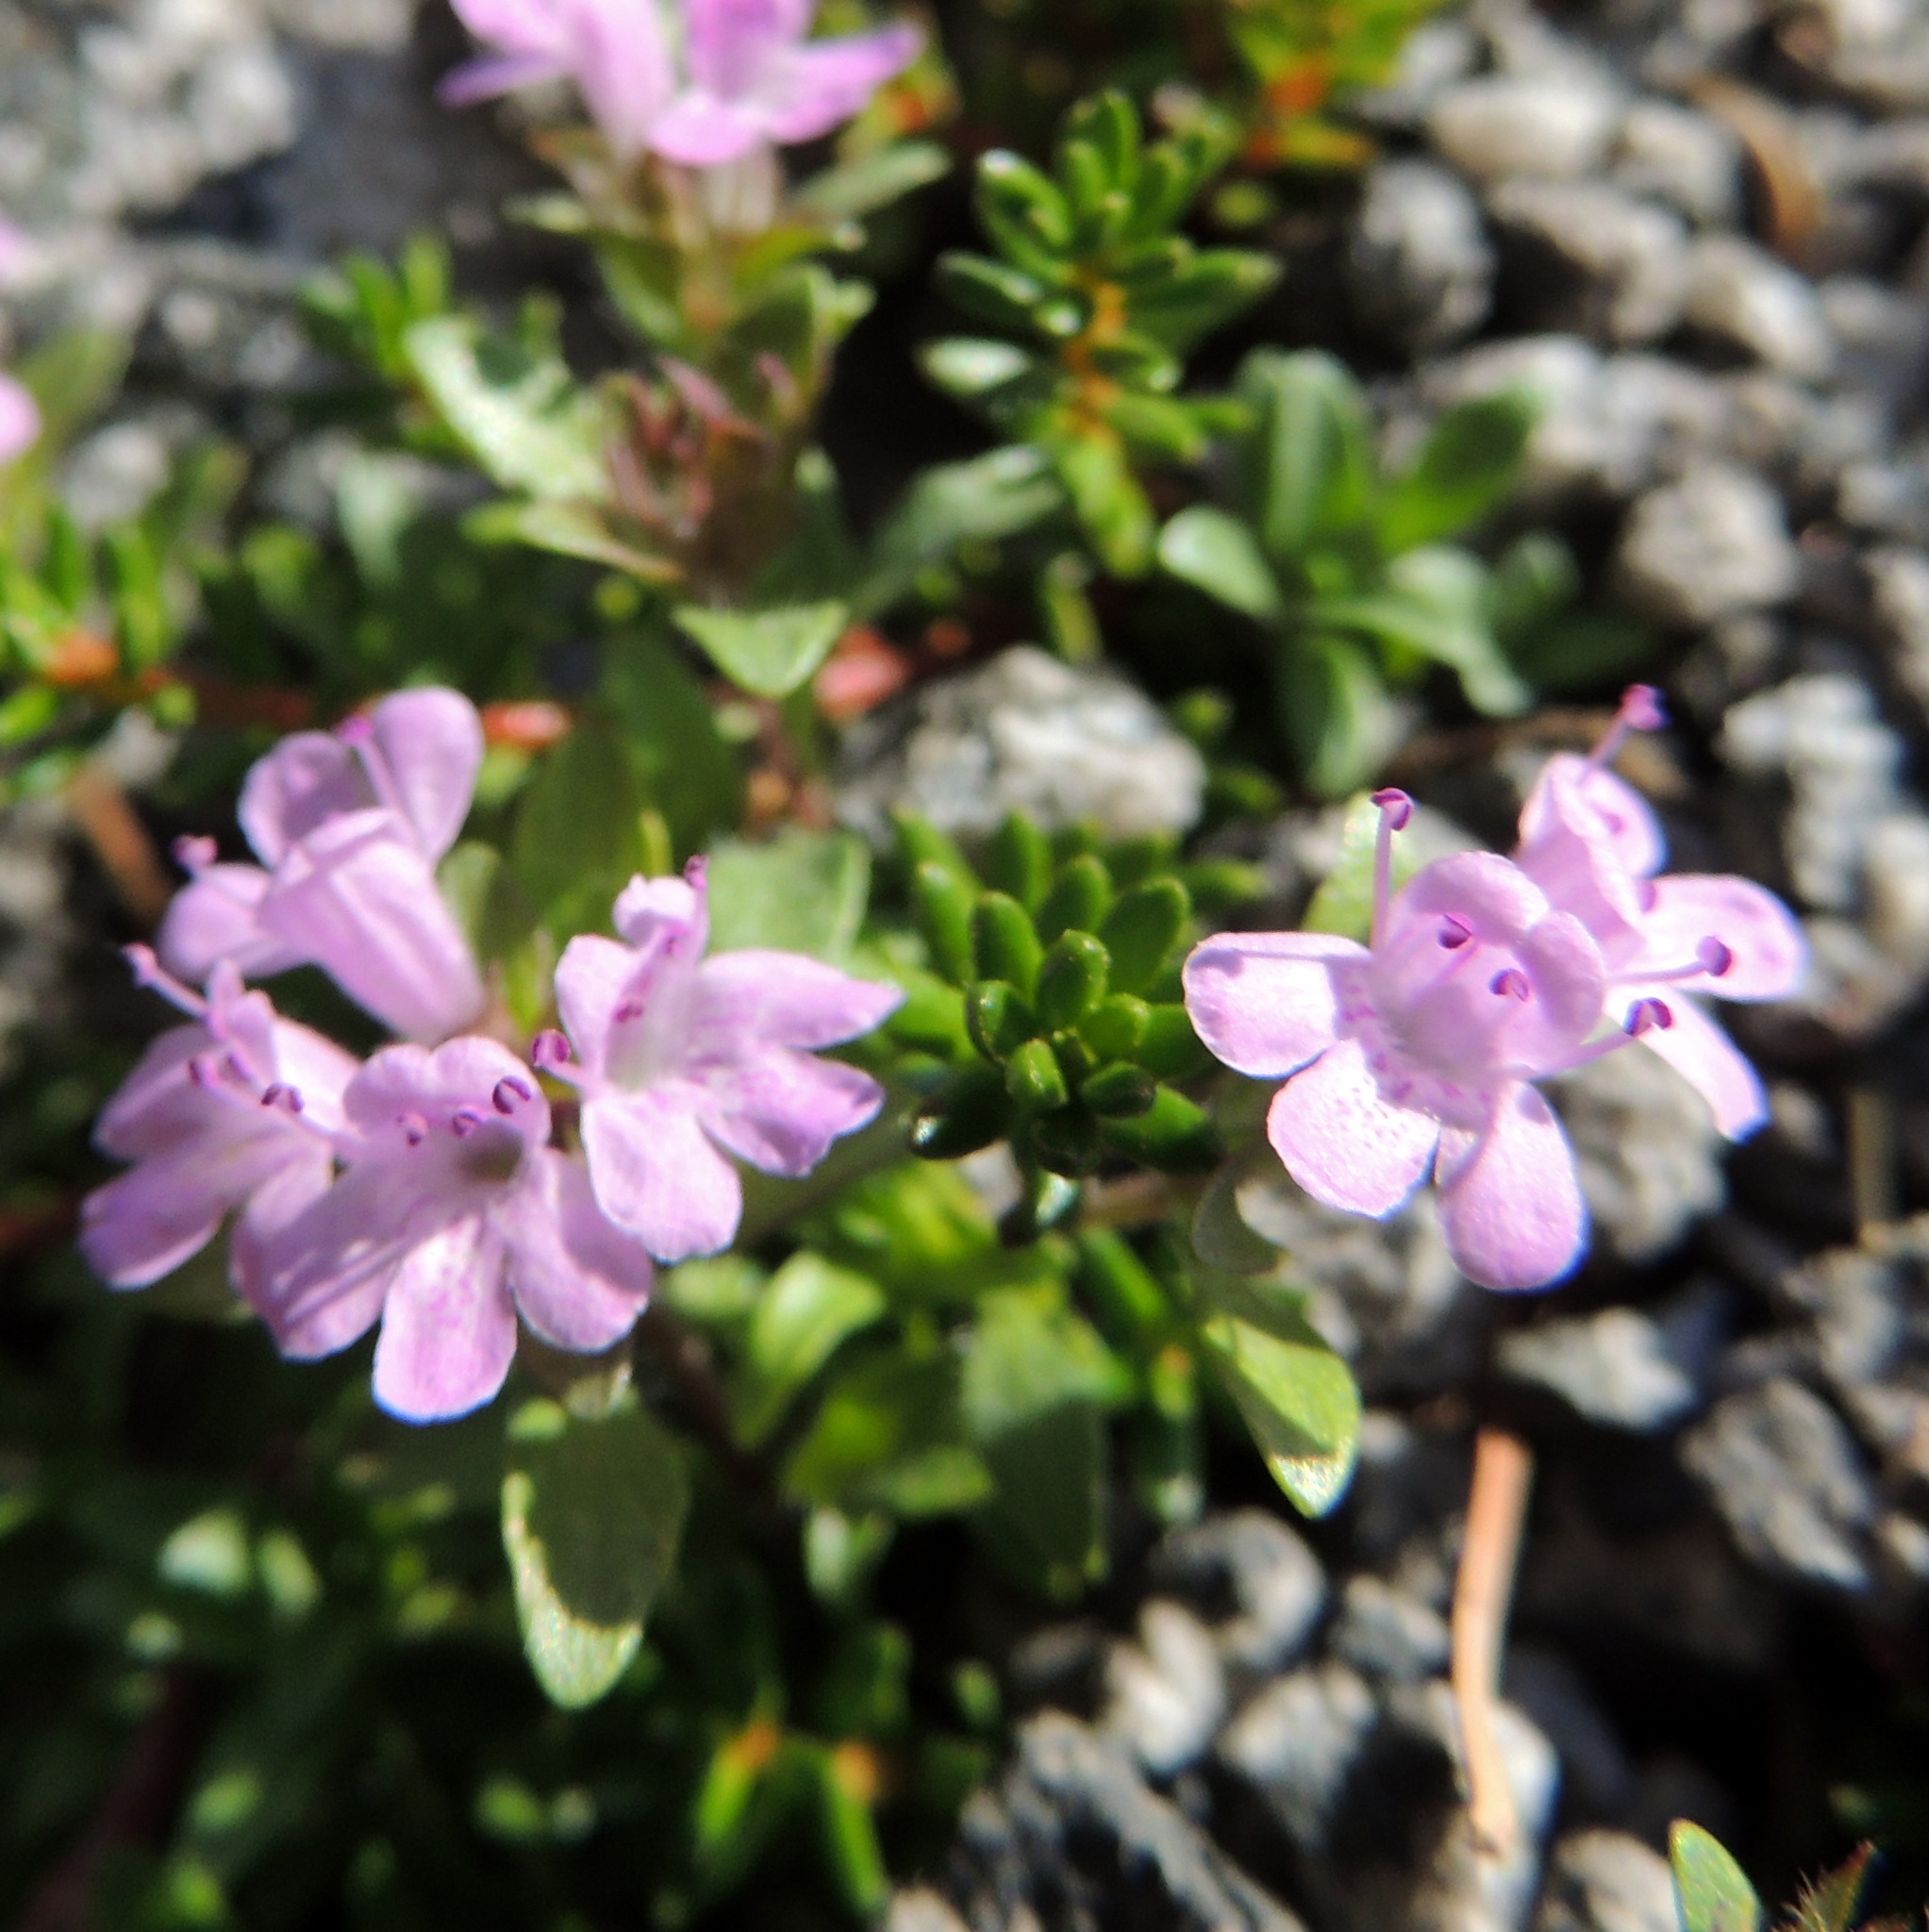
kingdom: Plantae
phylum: Tracheophyta
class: Magnoliopsida
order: Lamiales
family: Lamiaceae
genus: Thymus
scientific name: Thymus mongolicus
